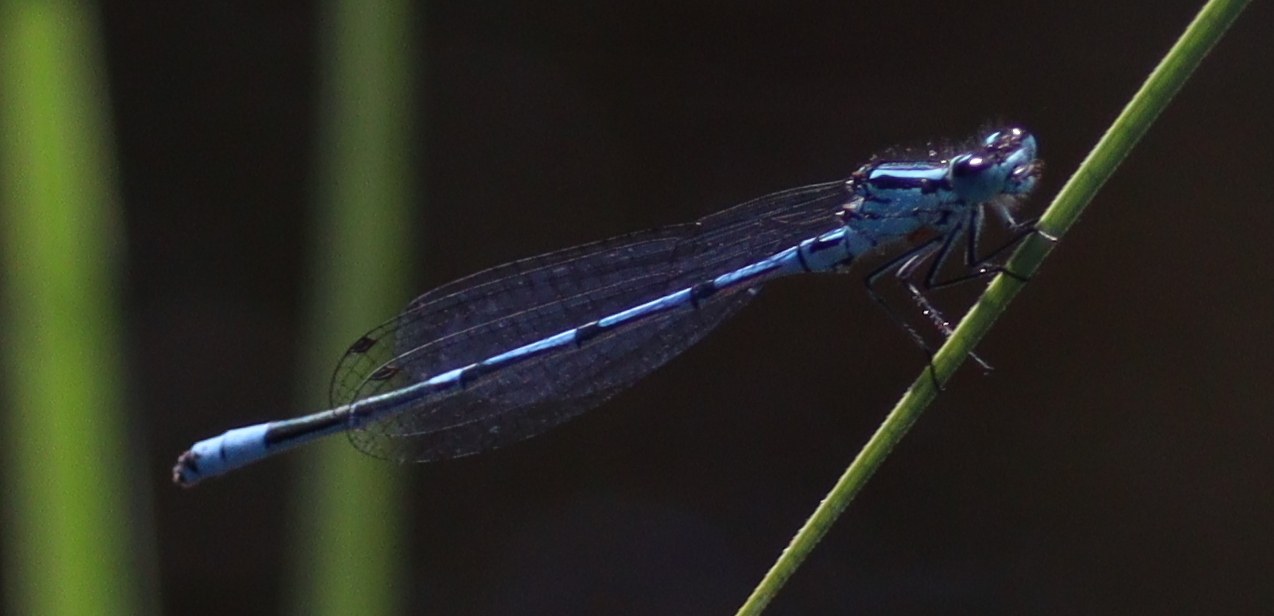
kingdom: Animalia
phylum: Arthropoda
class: Insecta
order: Odonata
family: Coenagrionidae
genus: Coenagrion
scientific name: Coenagrion puella
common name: Azure damselfly
